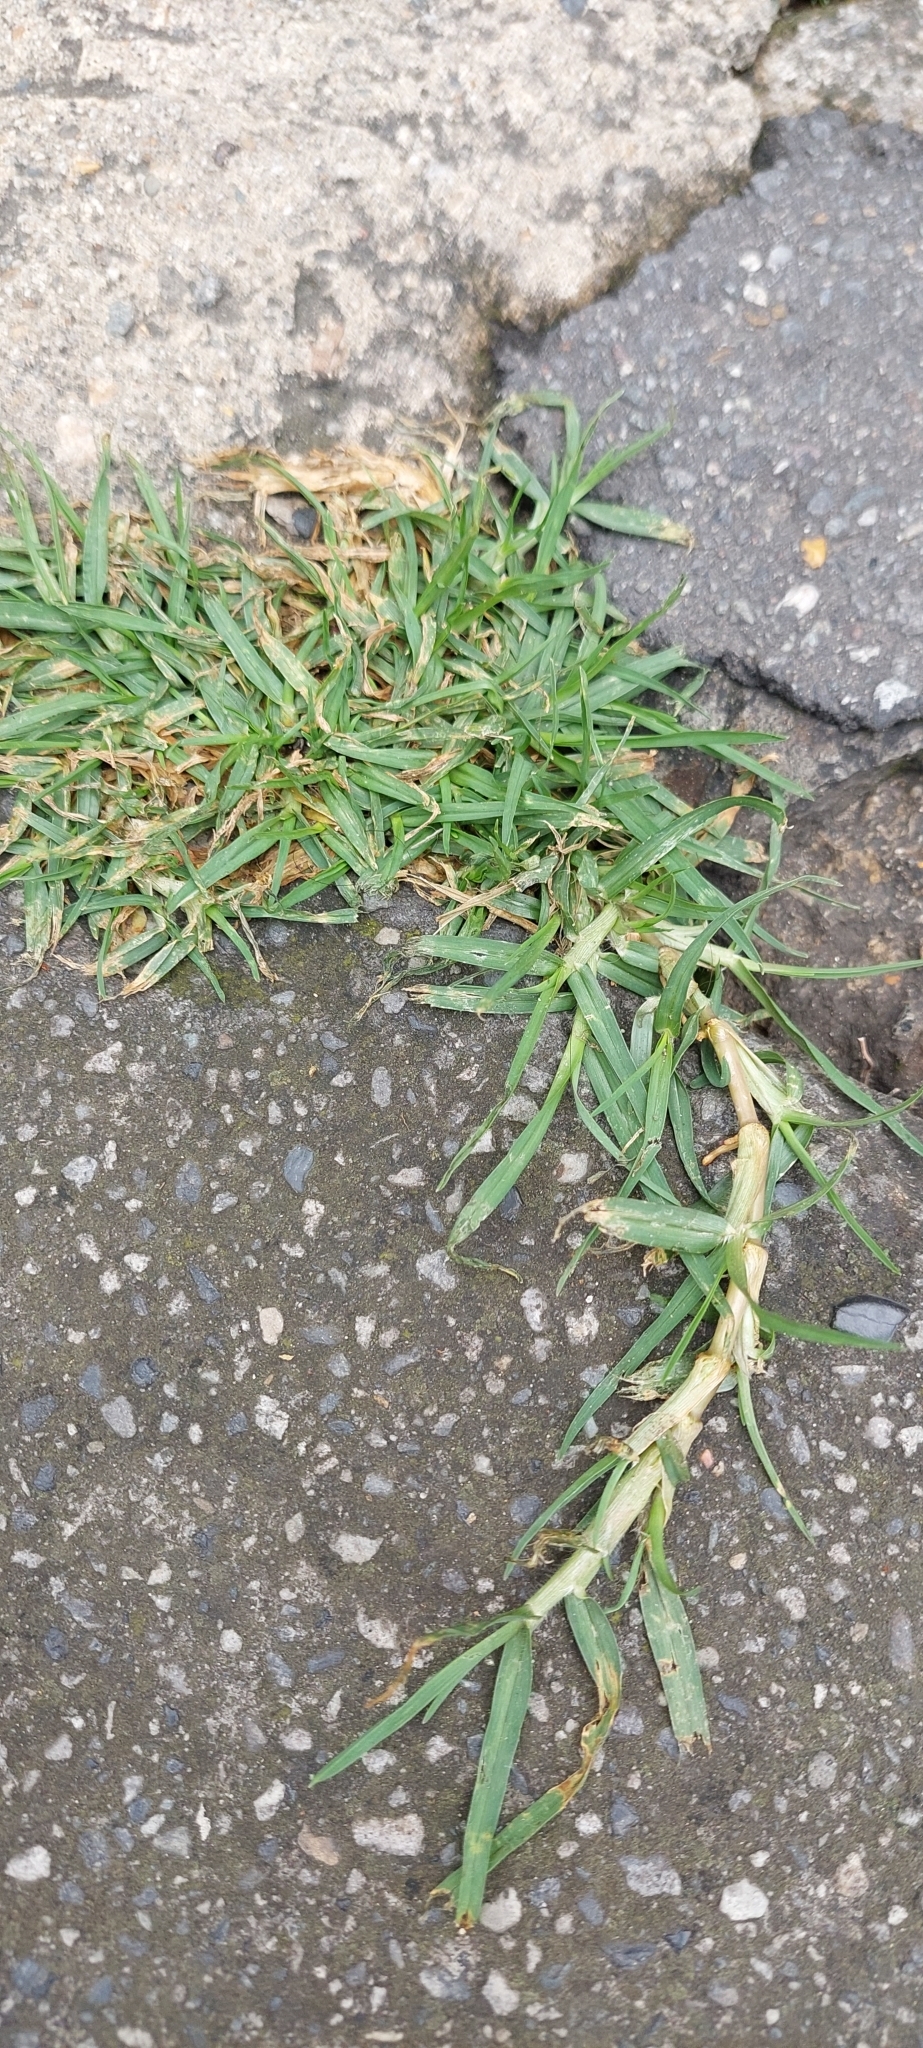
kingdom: Plantae
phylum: Tracheophyta
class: Liliopsida
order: Poales
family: Poaceae
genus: Cenchrus
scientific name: Cenchrus clandestinus
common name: Kikuyugrass
